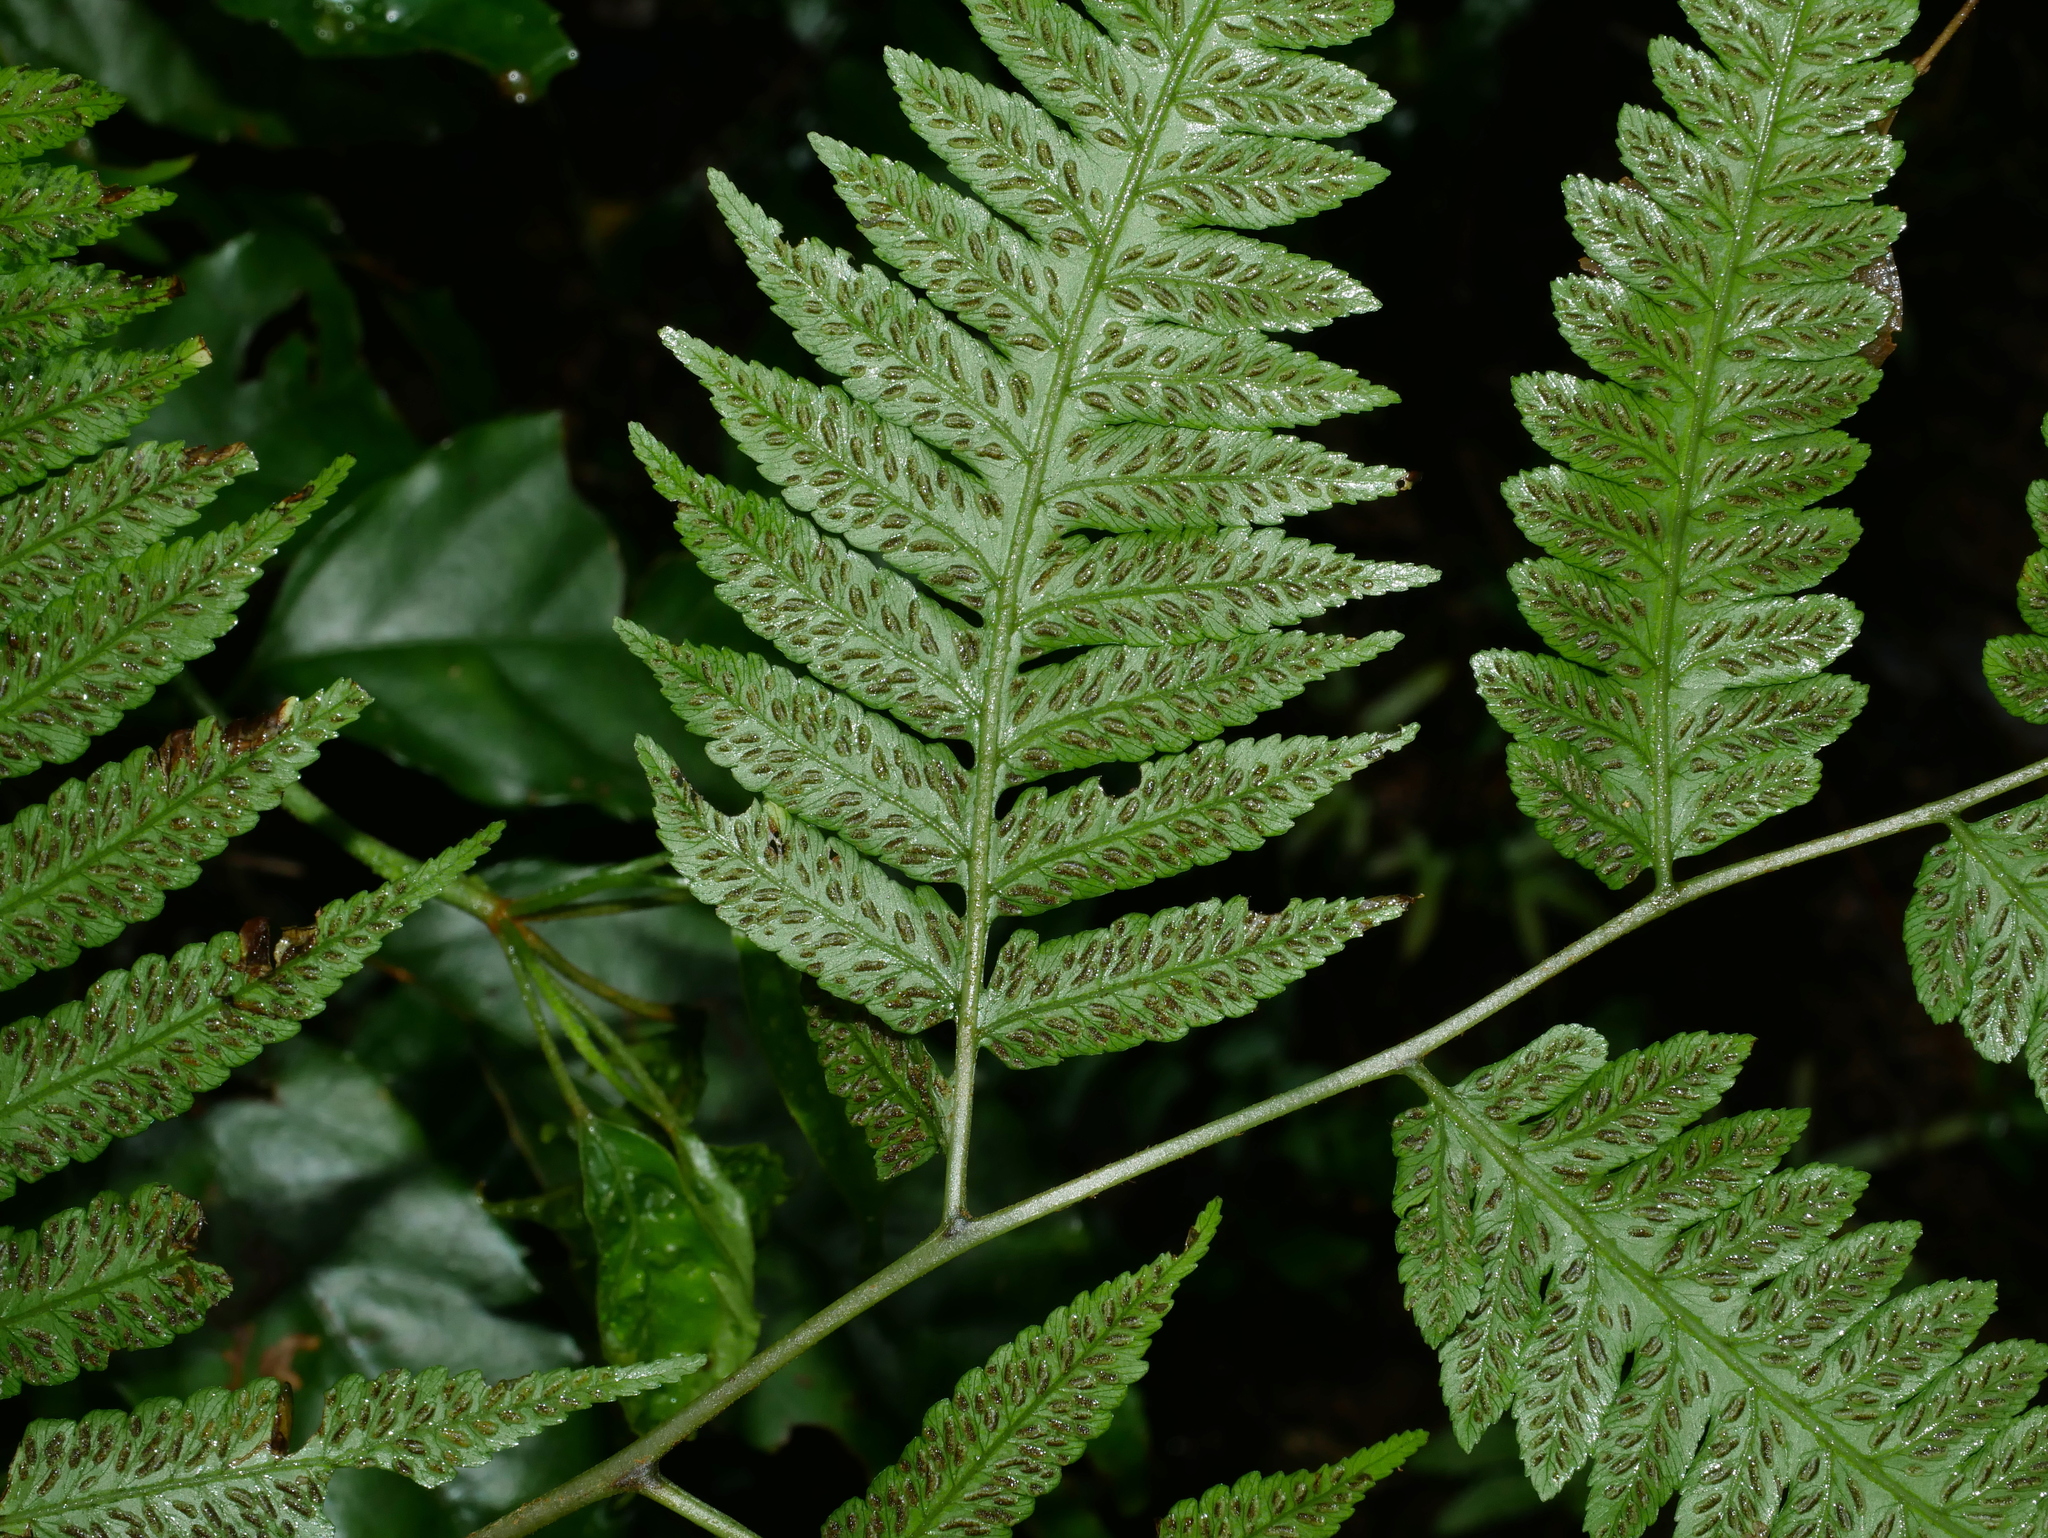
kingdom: Plantae
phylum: Tracheophyta
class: Polypodiopsida
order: Polypodiales
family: Athyriaceae
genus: Diplazium
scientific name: Diplazium taiwanense
